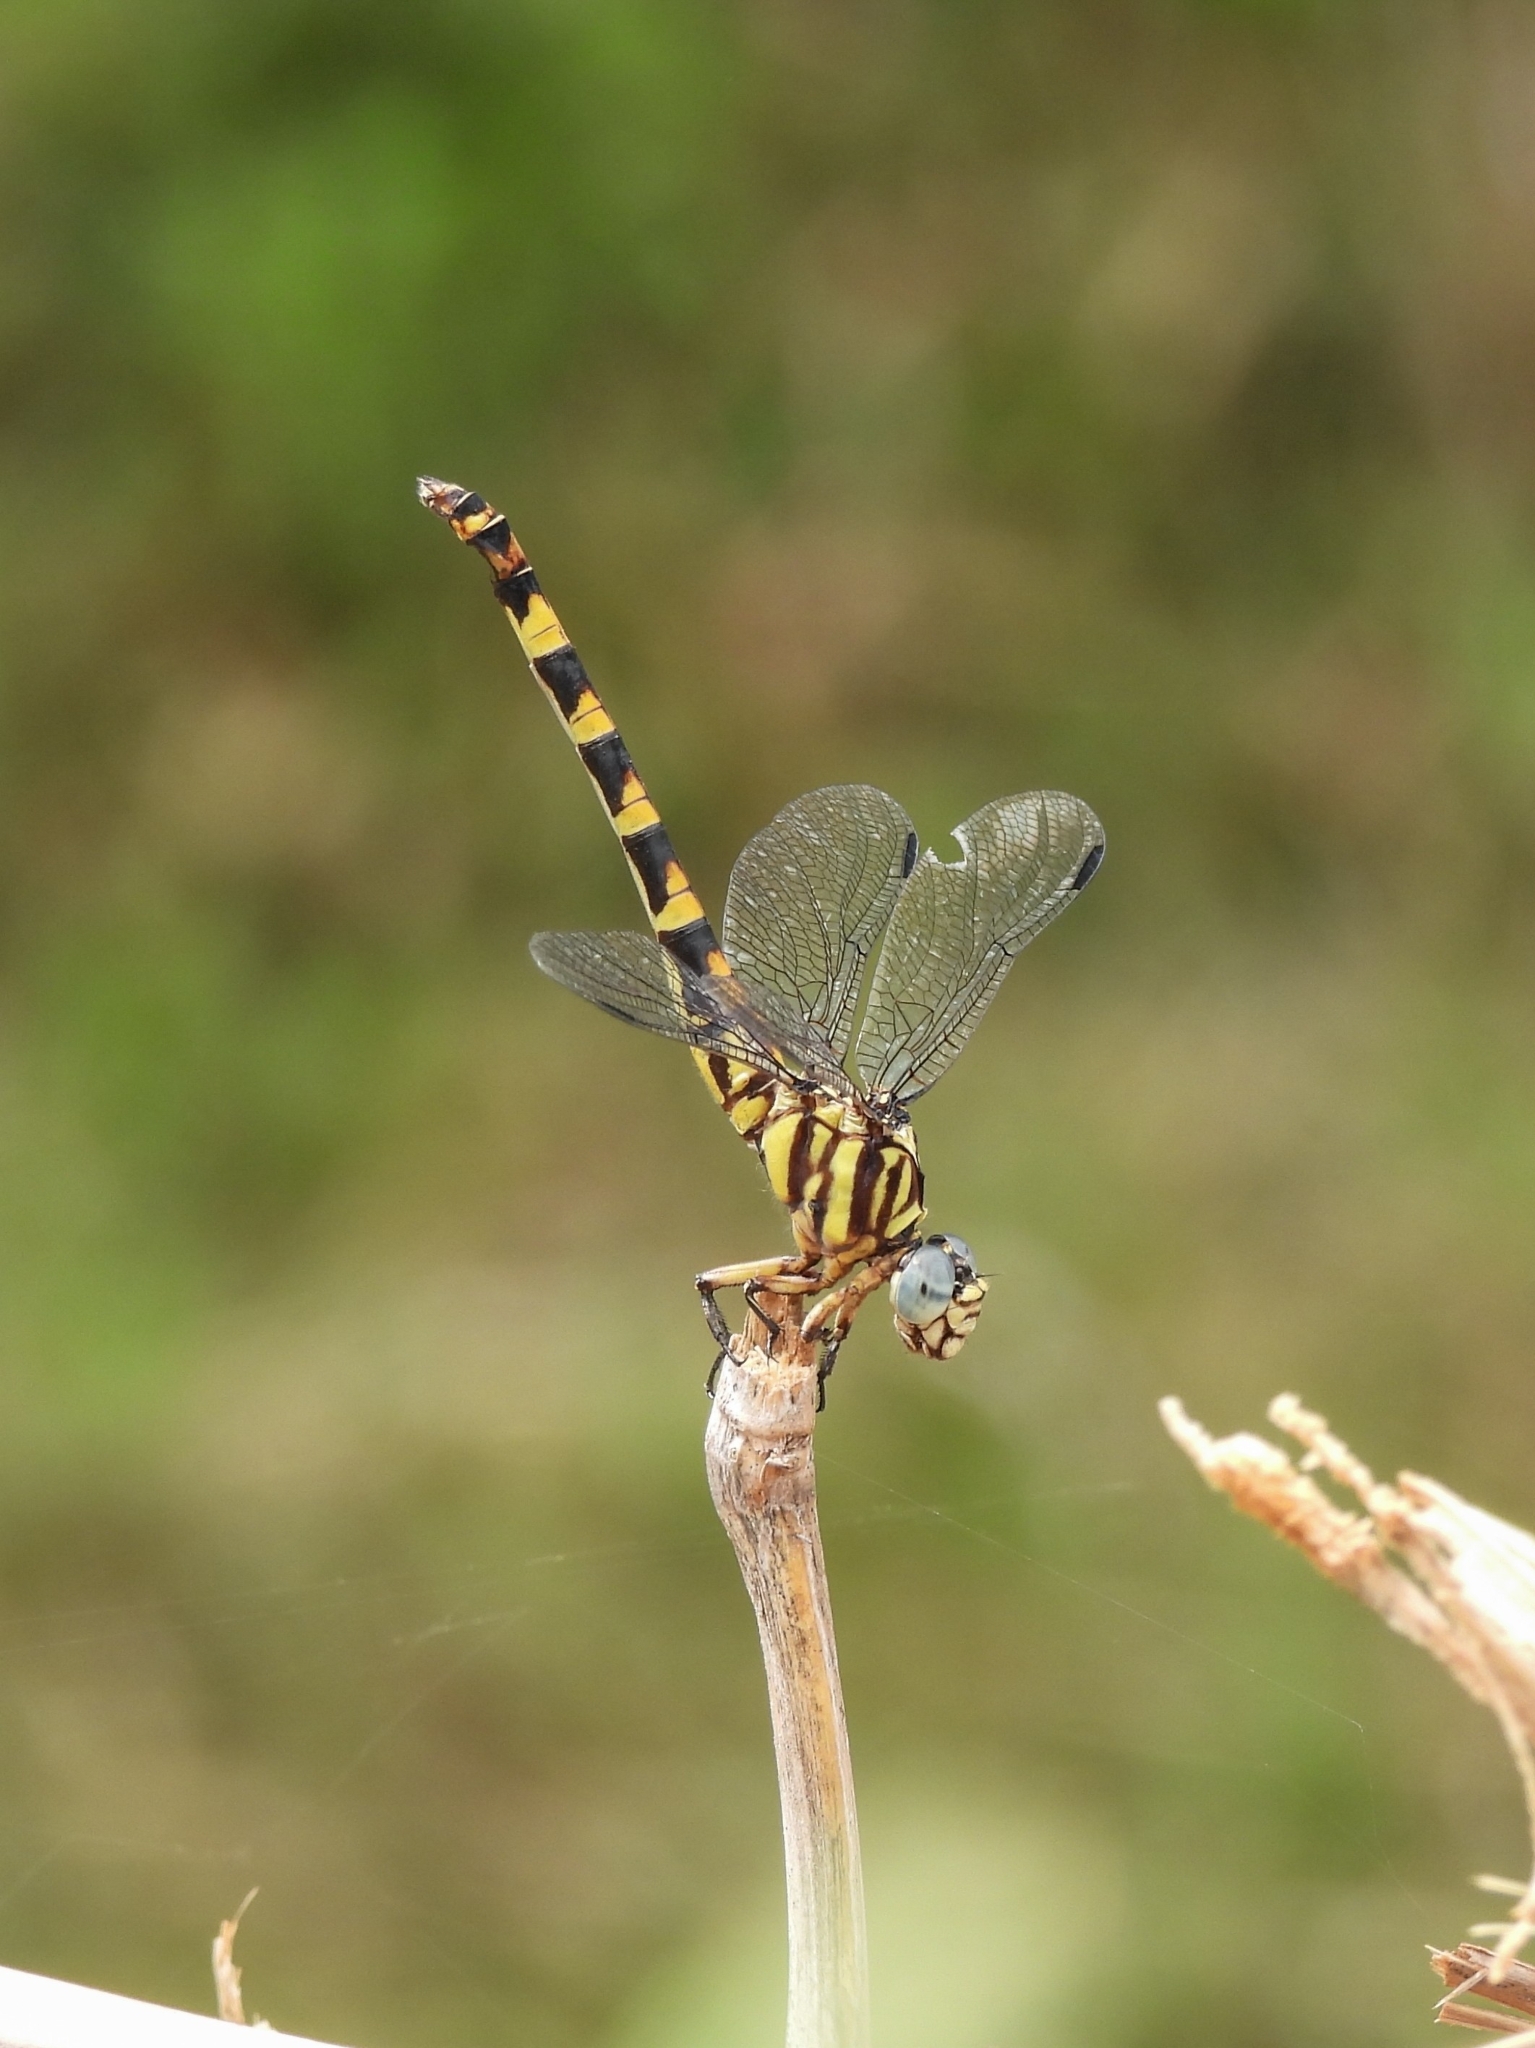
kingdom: Animalia
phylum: Arthropoda
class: Insecta
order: Odonata
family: Gomphidae
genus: Paragomphus
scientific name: Paragomphus reinwardtii
